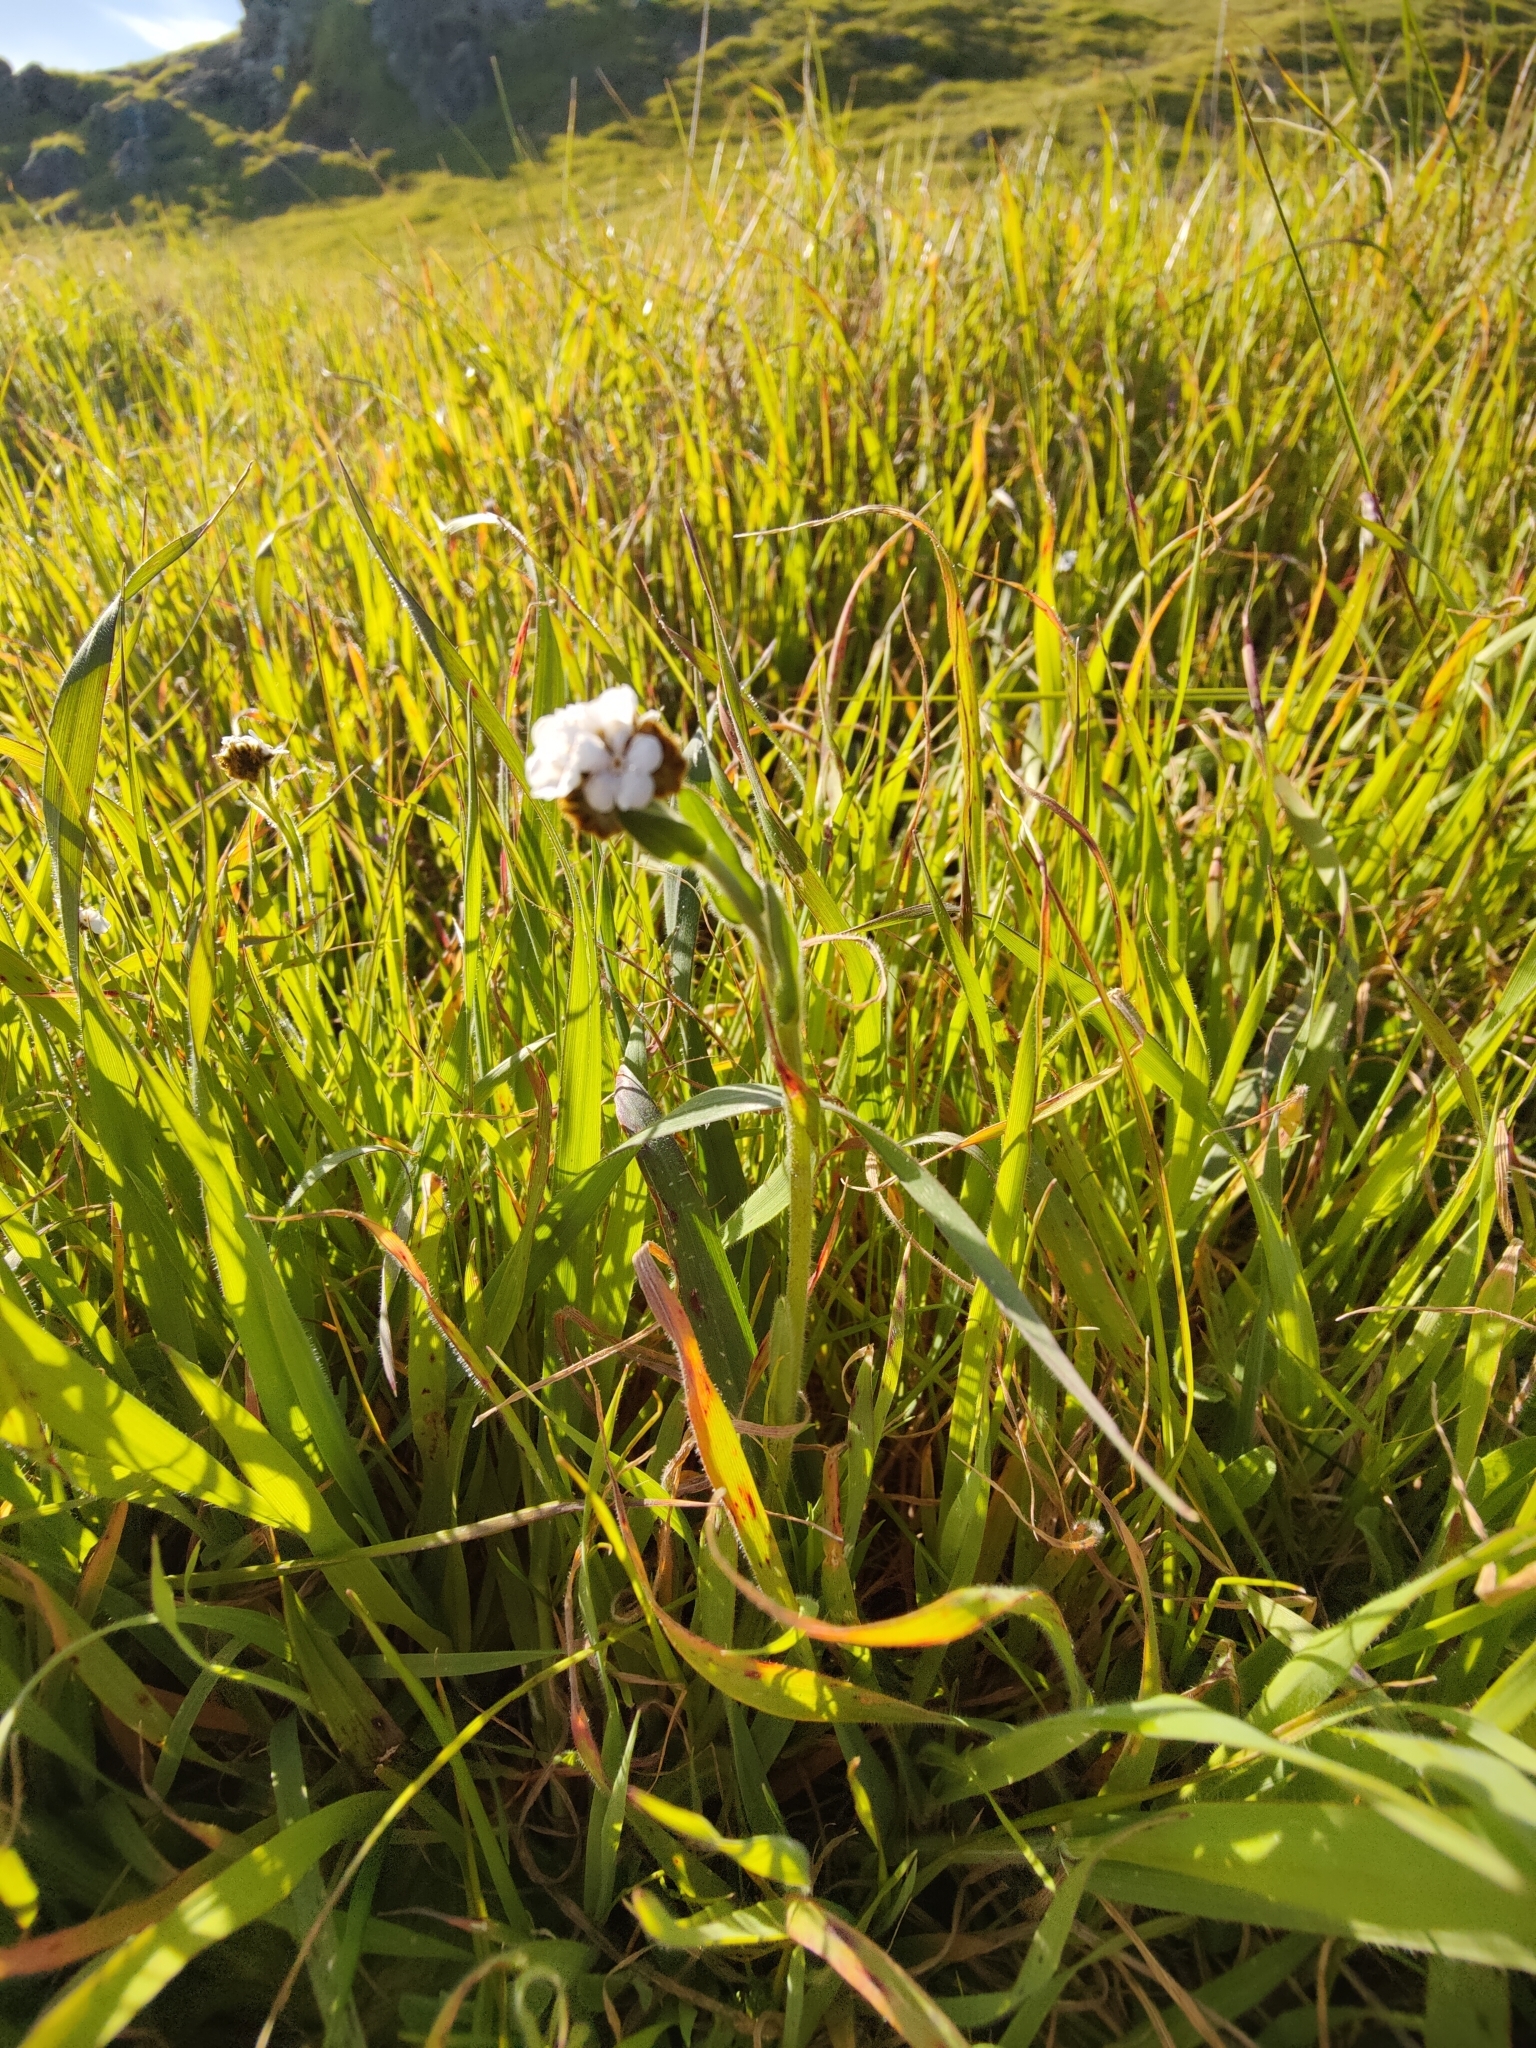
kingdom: Plantae
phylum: Tracheophyta
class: Magnoliopsida
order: Boraginales
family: Boraginaceae
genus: Plagiobothrys
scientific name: Plagiobothrys nothofulvus
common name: Popcorn-flower
